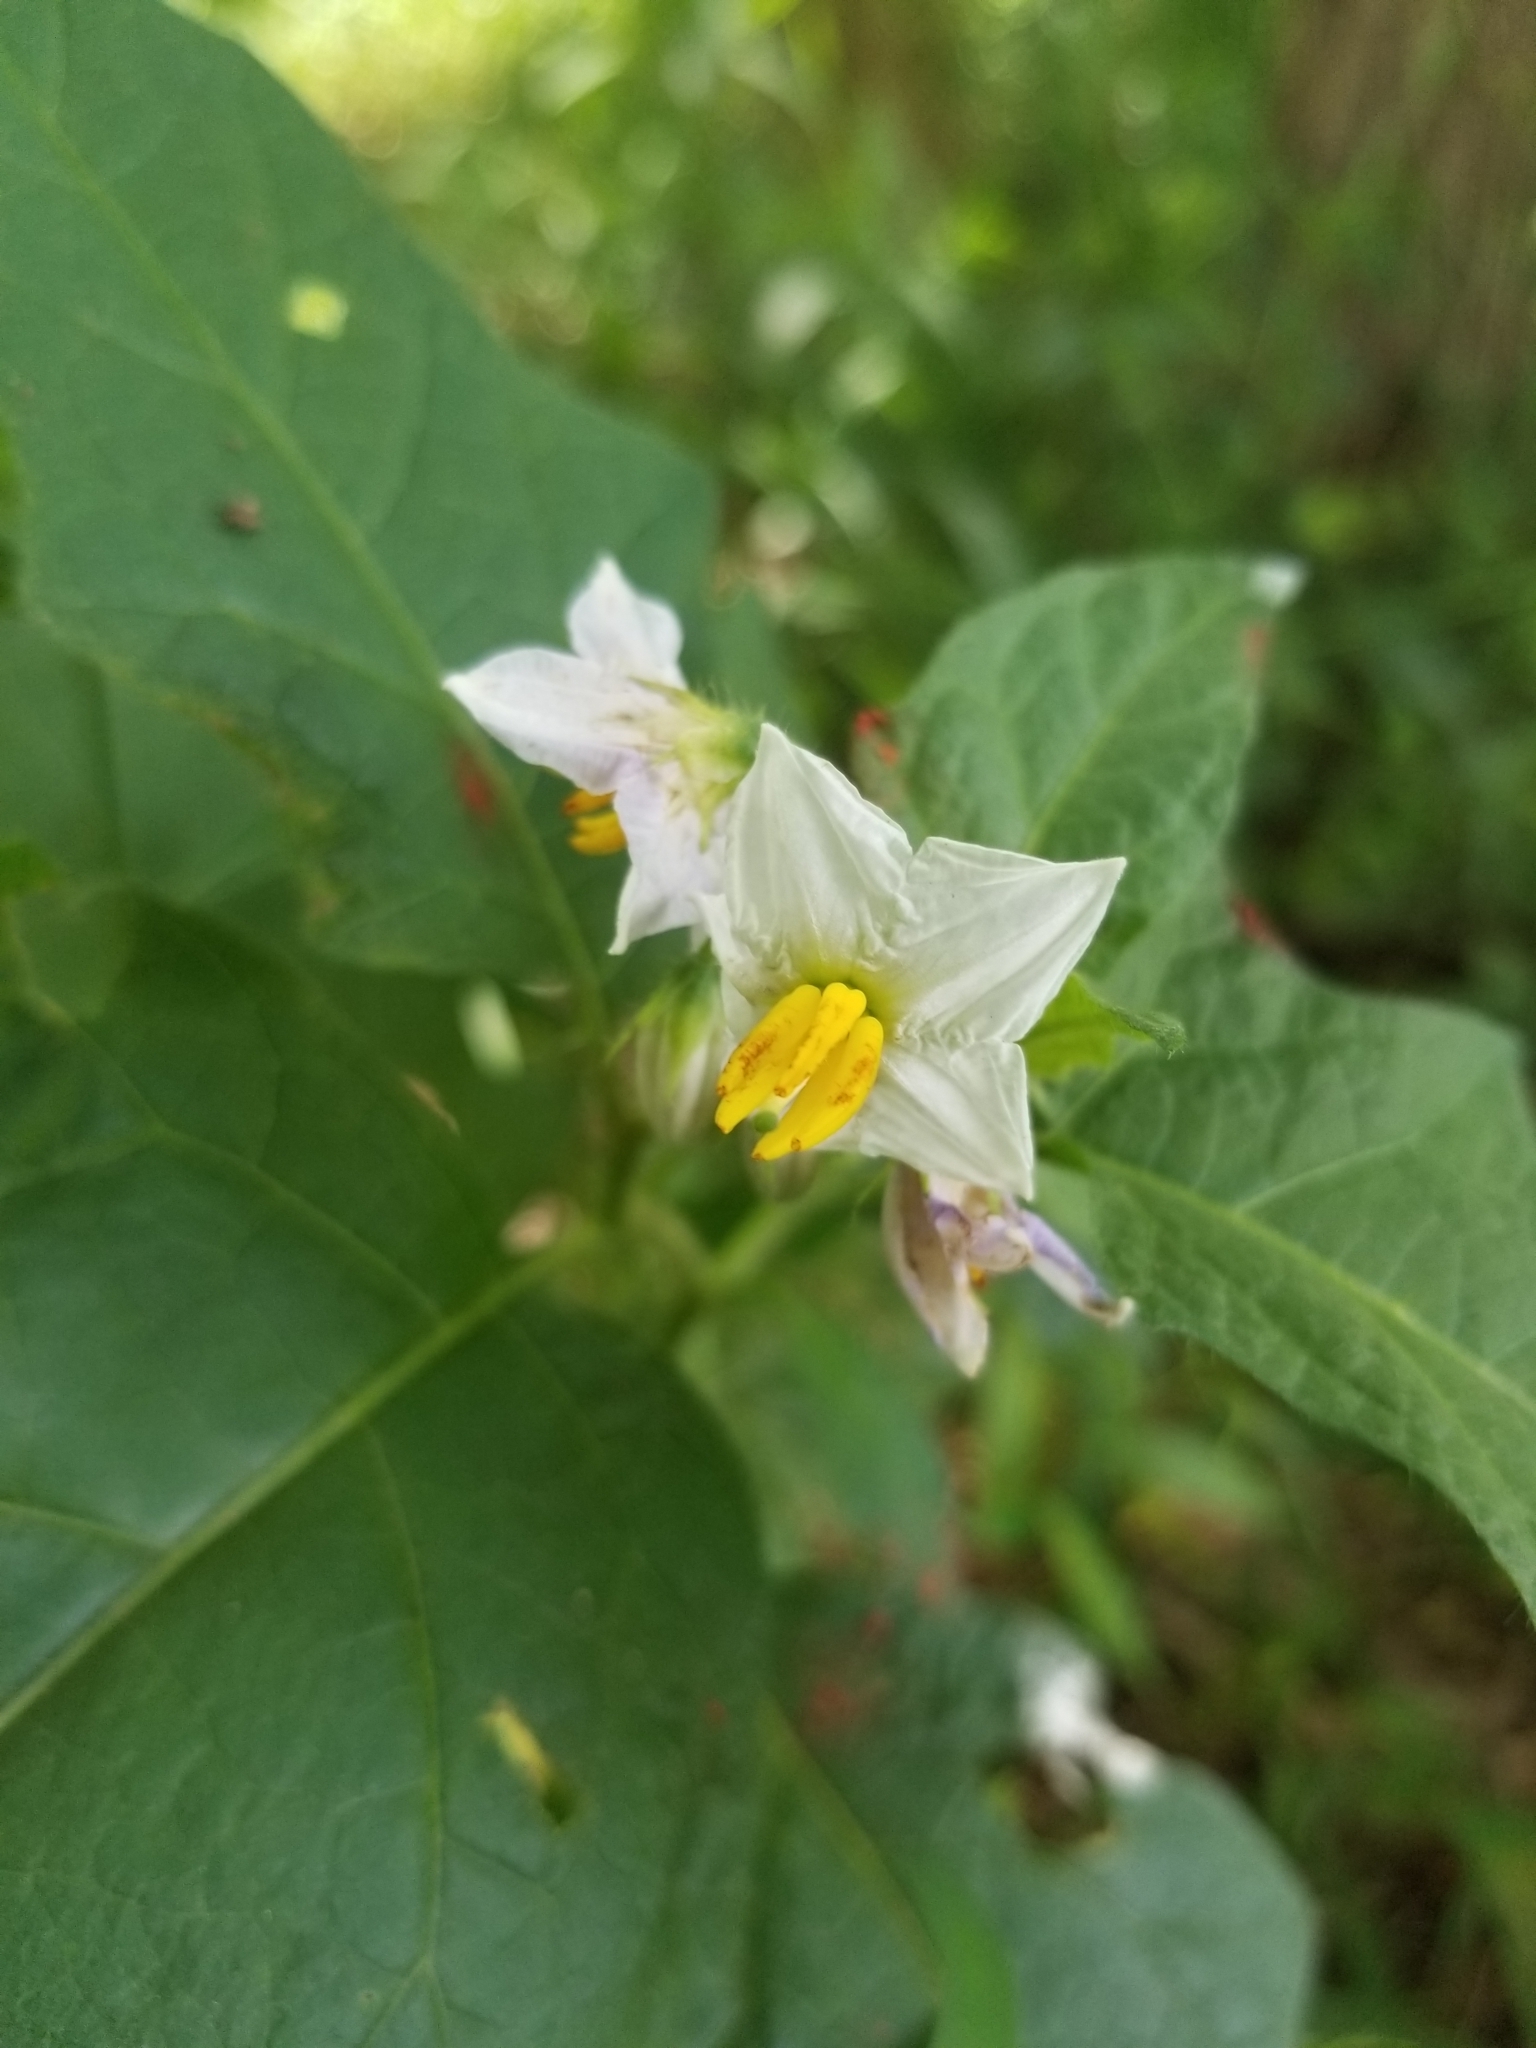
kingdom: Plantae
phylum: Tracheophyta
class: Magnoliopsida
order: Solanales
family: Solanaceae
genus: Solanum
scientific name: Solanum carolinense
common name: Horse-nettle
